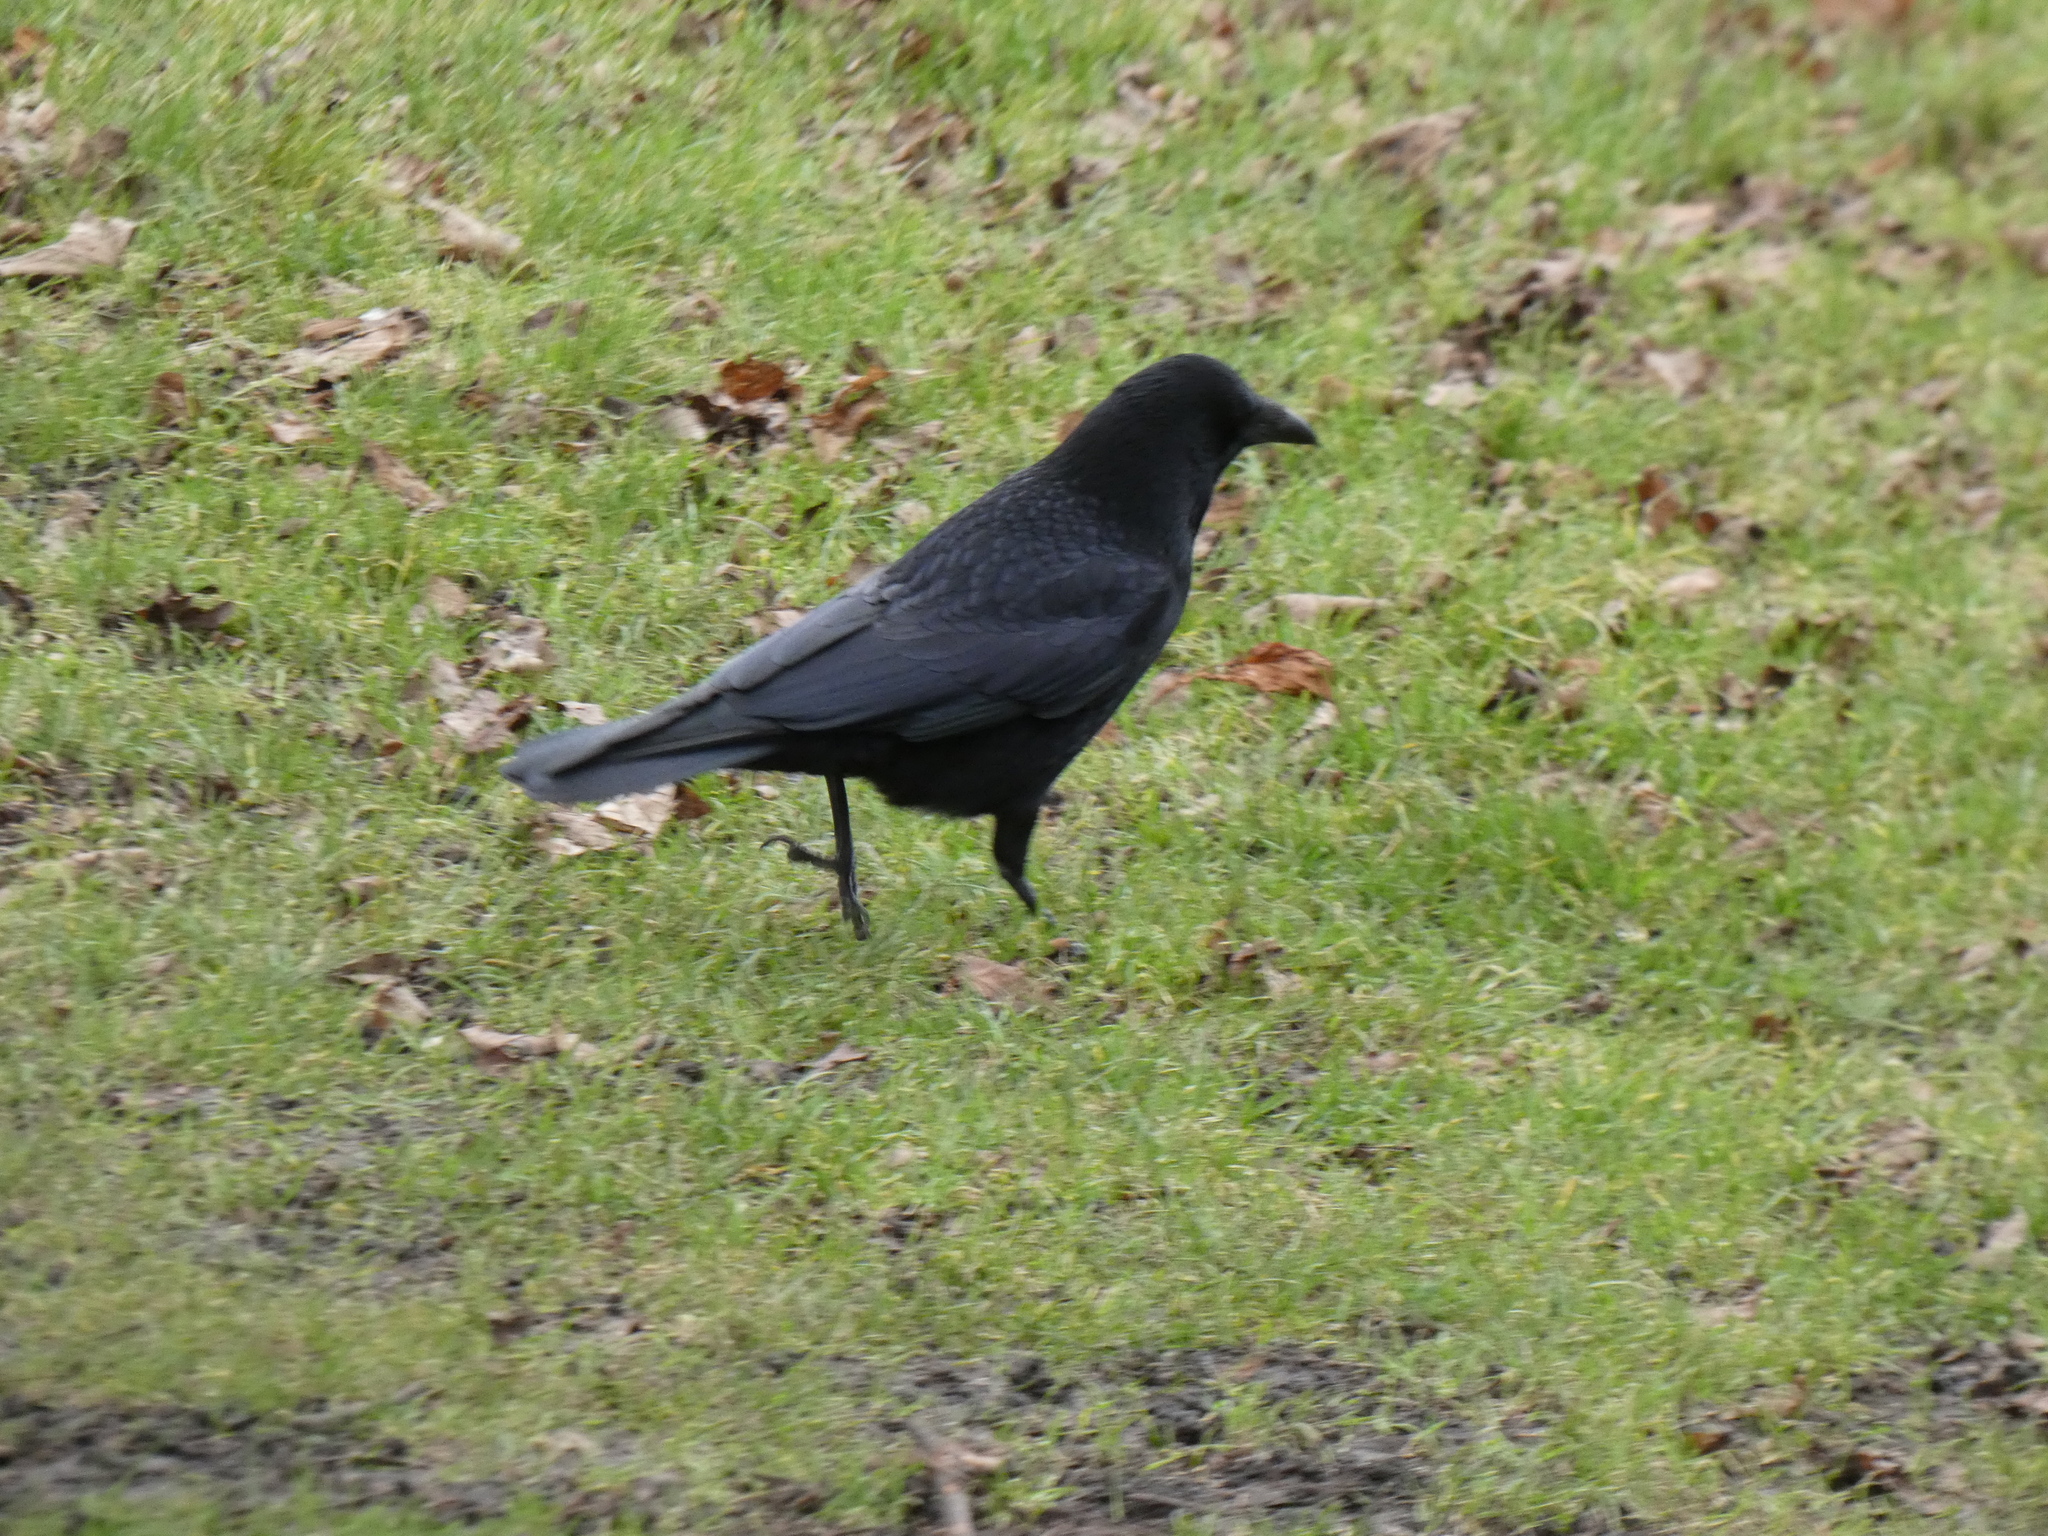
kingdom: Animalia
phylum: Chordata
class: Aves
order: Passeriformes
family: Corvidae
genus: Corvus
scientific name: Corvus corone
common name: Carrion crow
